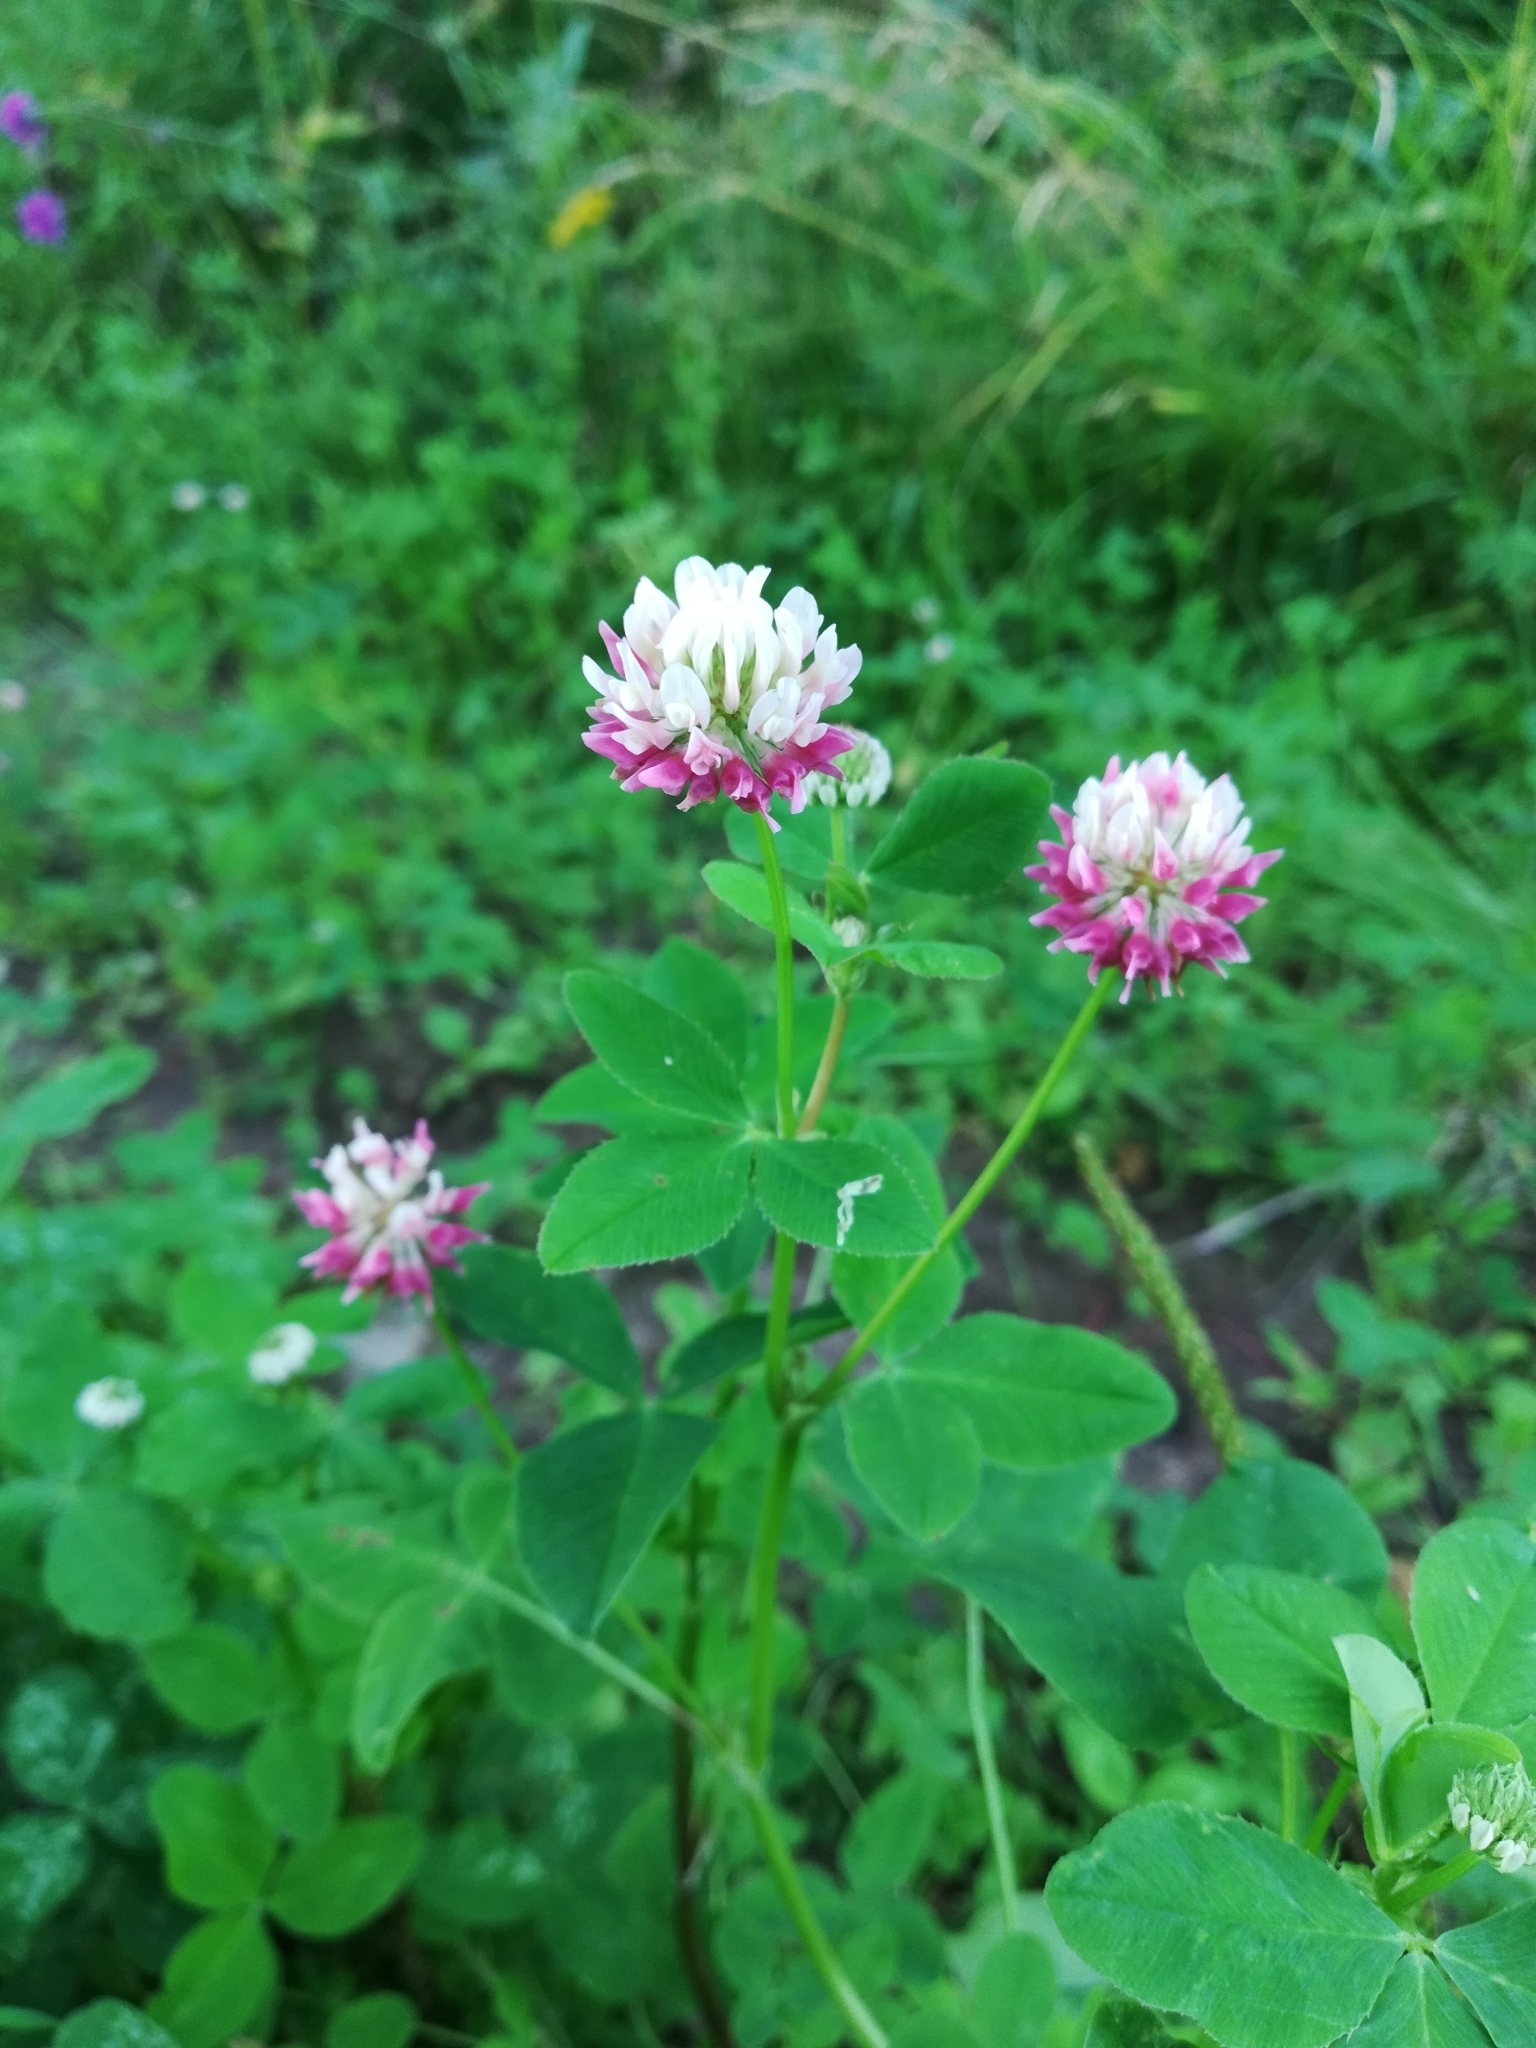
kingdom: Plantae
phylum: Tracheophyta
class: Magnoliopsida
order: Fabales
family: Fabaceae
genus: Trifolium
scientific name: Trifolium hybridum
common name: Alsike clover
